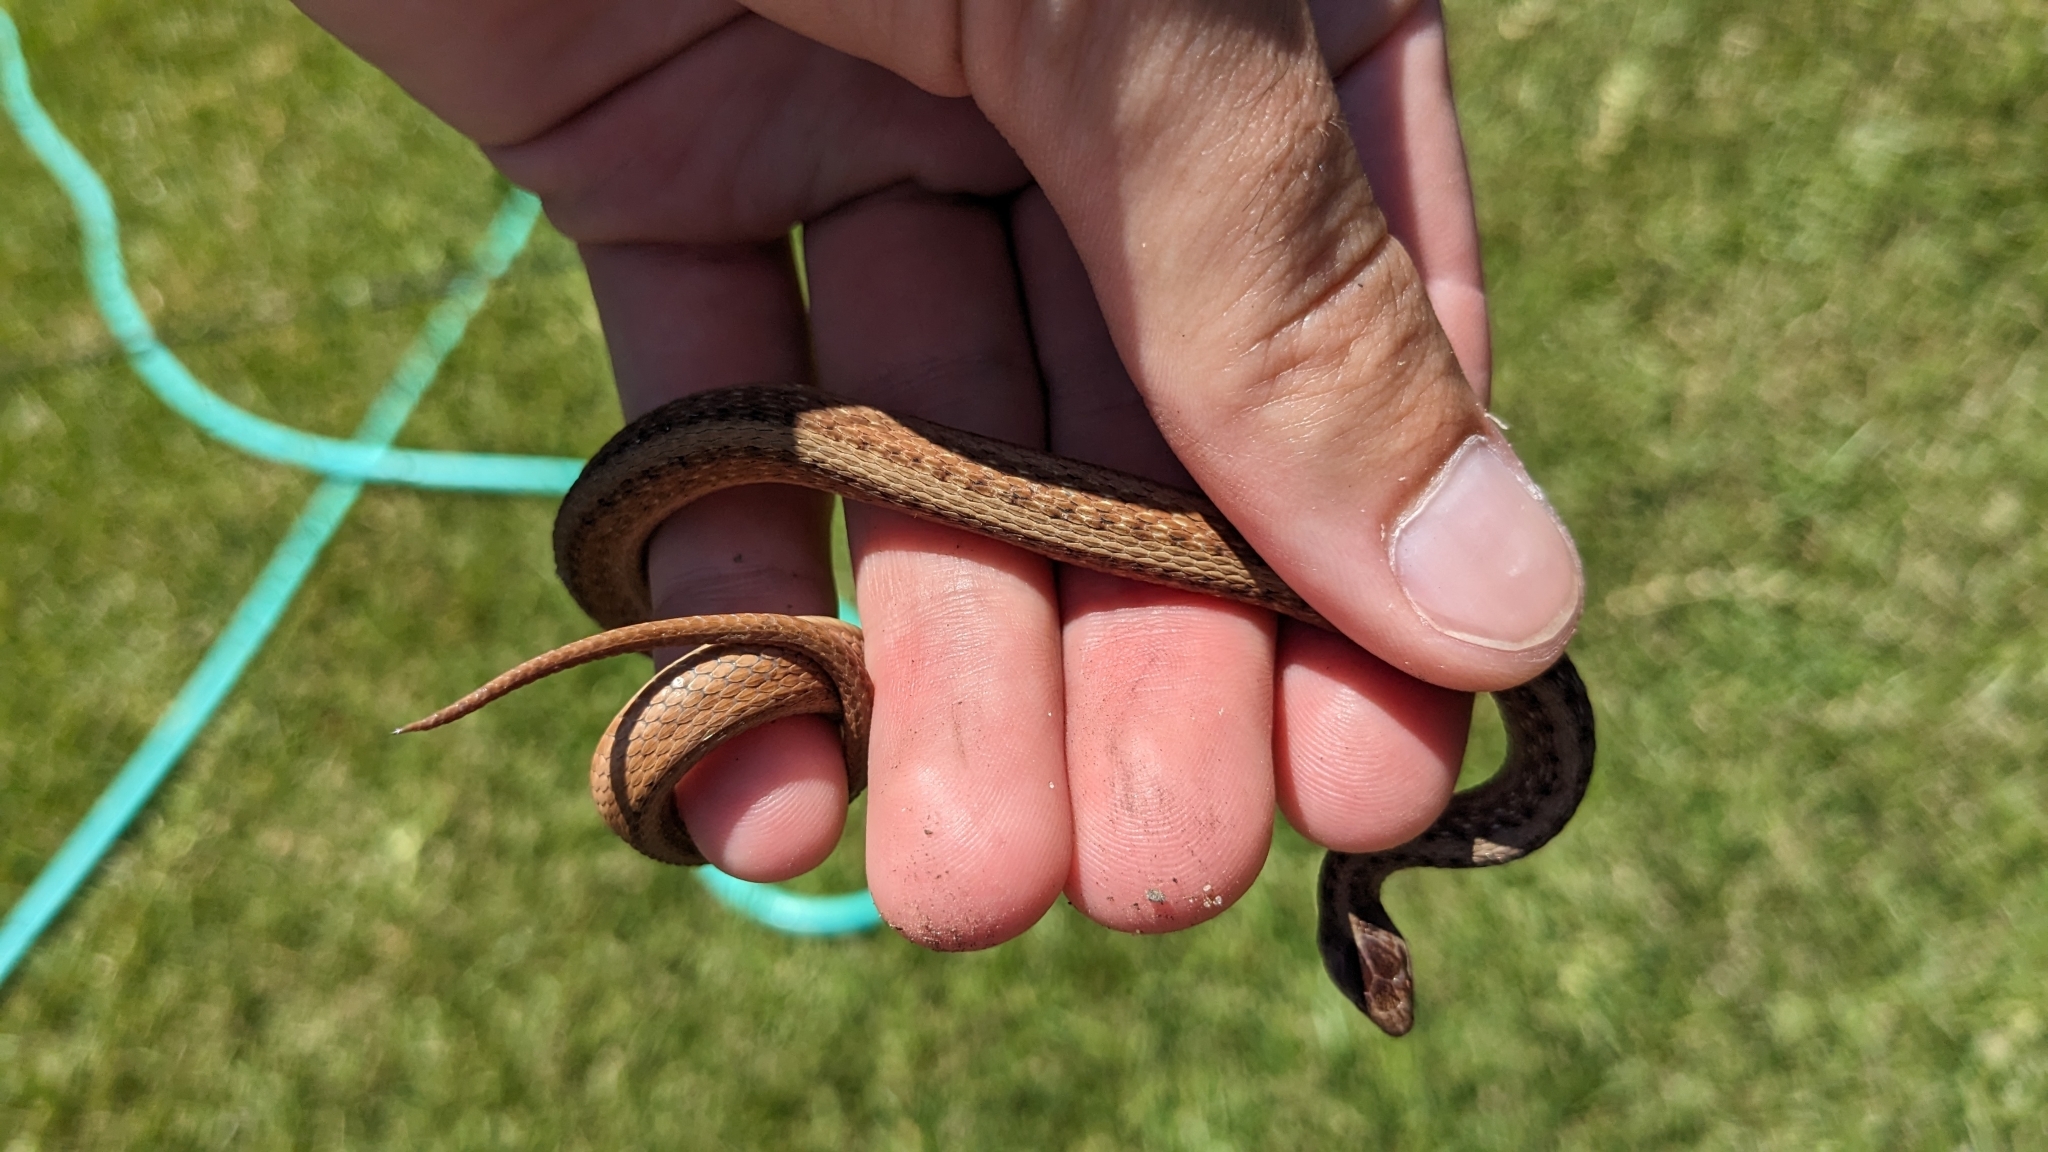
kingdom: Animalia
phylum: Chordata
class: Squamata
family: Colubridae
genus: Storeria
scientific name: Storeria dekayi
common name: (dekay’s) brown snake
